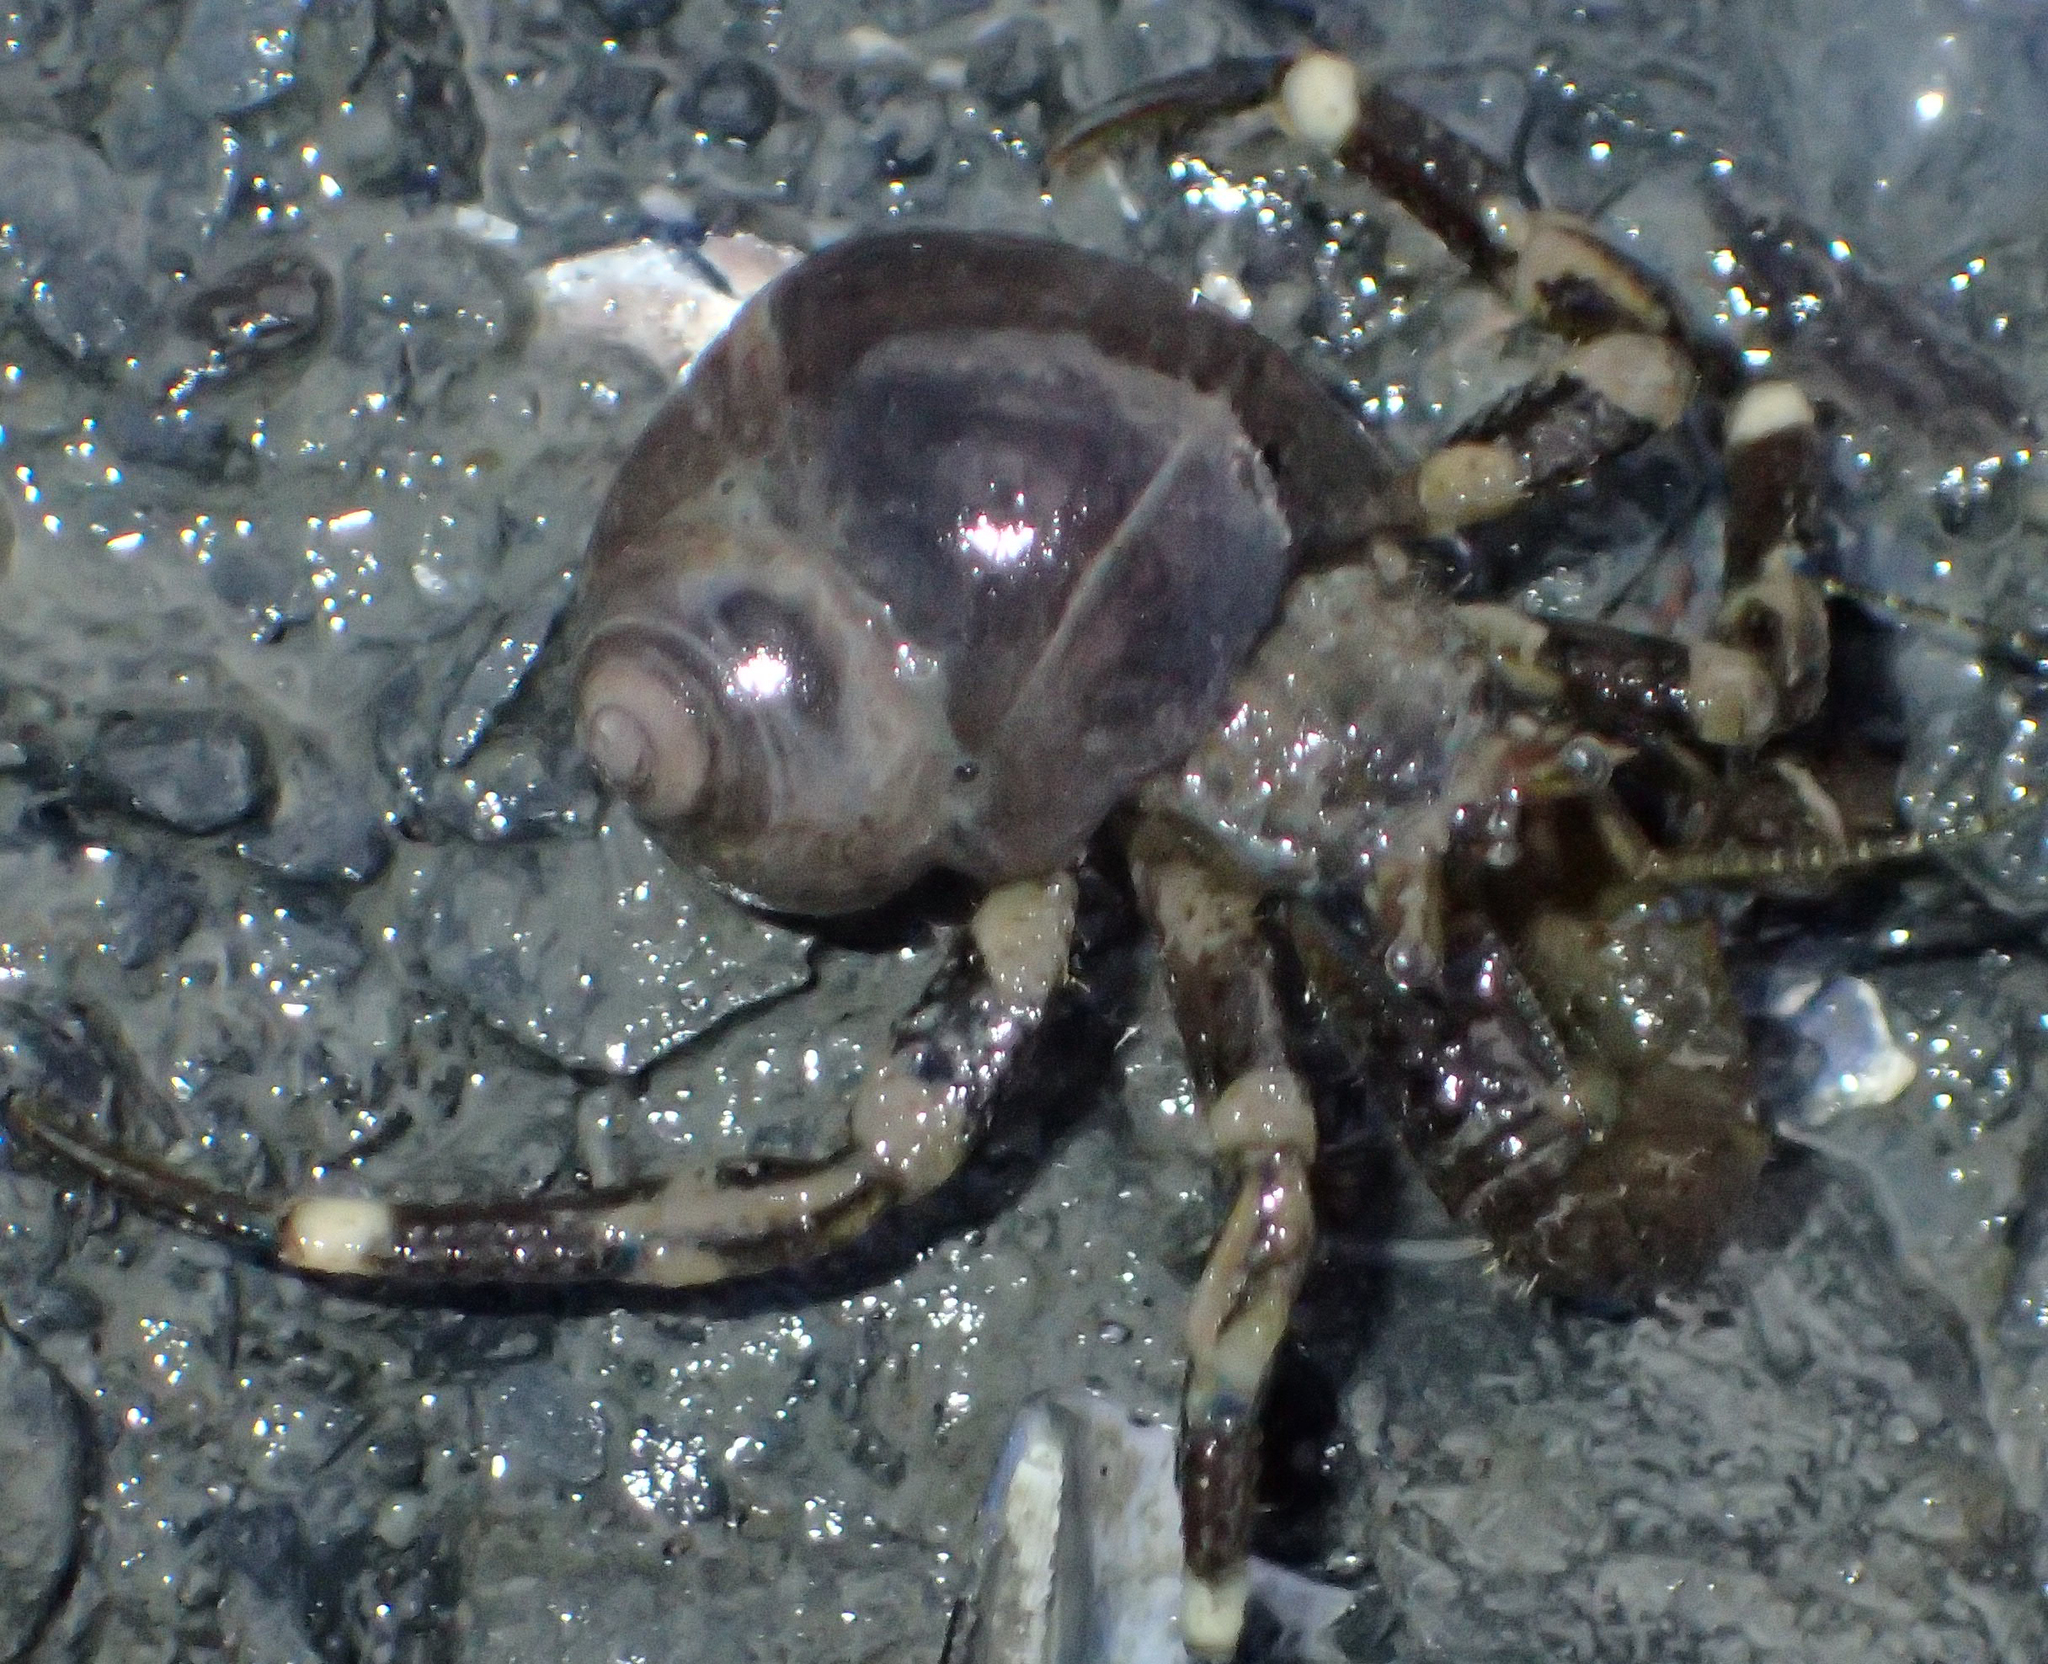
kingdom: Animalia
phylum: Arthropoda
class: Malacostraca
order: Decapoda
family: Paguridae
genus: Pagurus
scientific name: Pagurus hirsutiusculus
